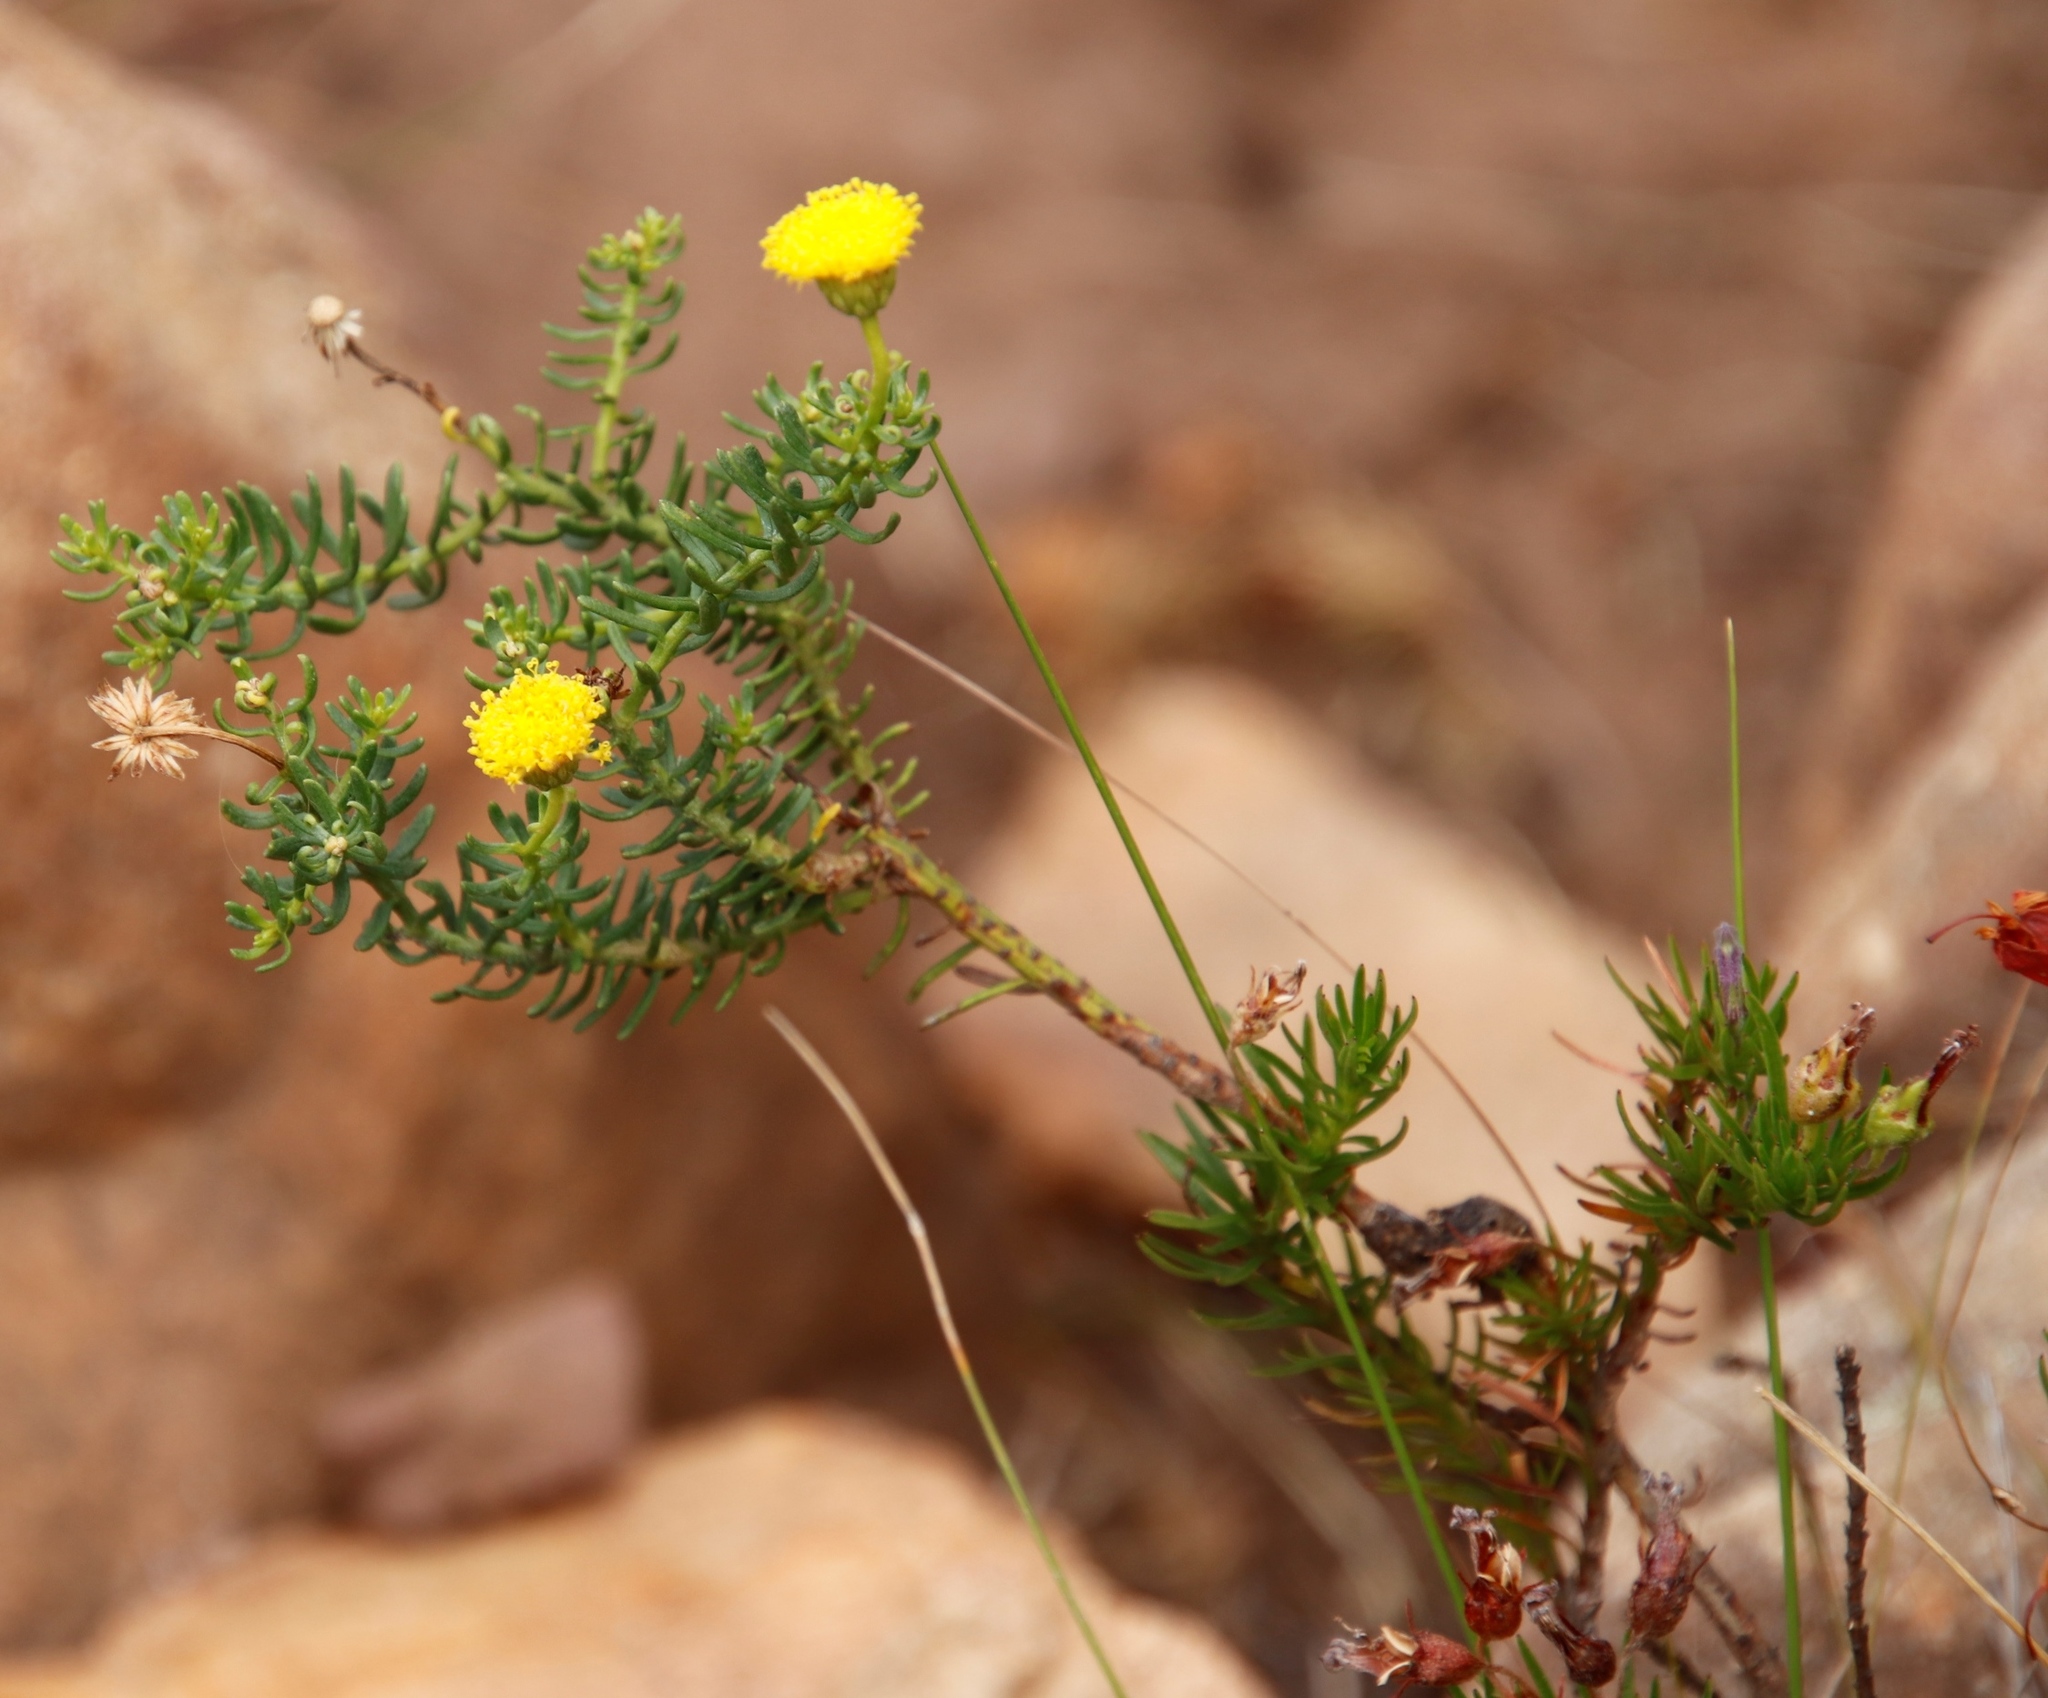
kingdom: Plantae
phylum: Tracheophyta
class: Magnoliopsida
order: Asterales
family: Asteraceae
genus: Chrysocoma
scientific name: Chrysocoma cernua
